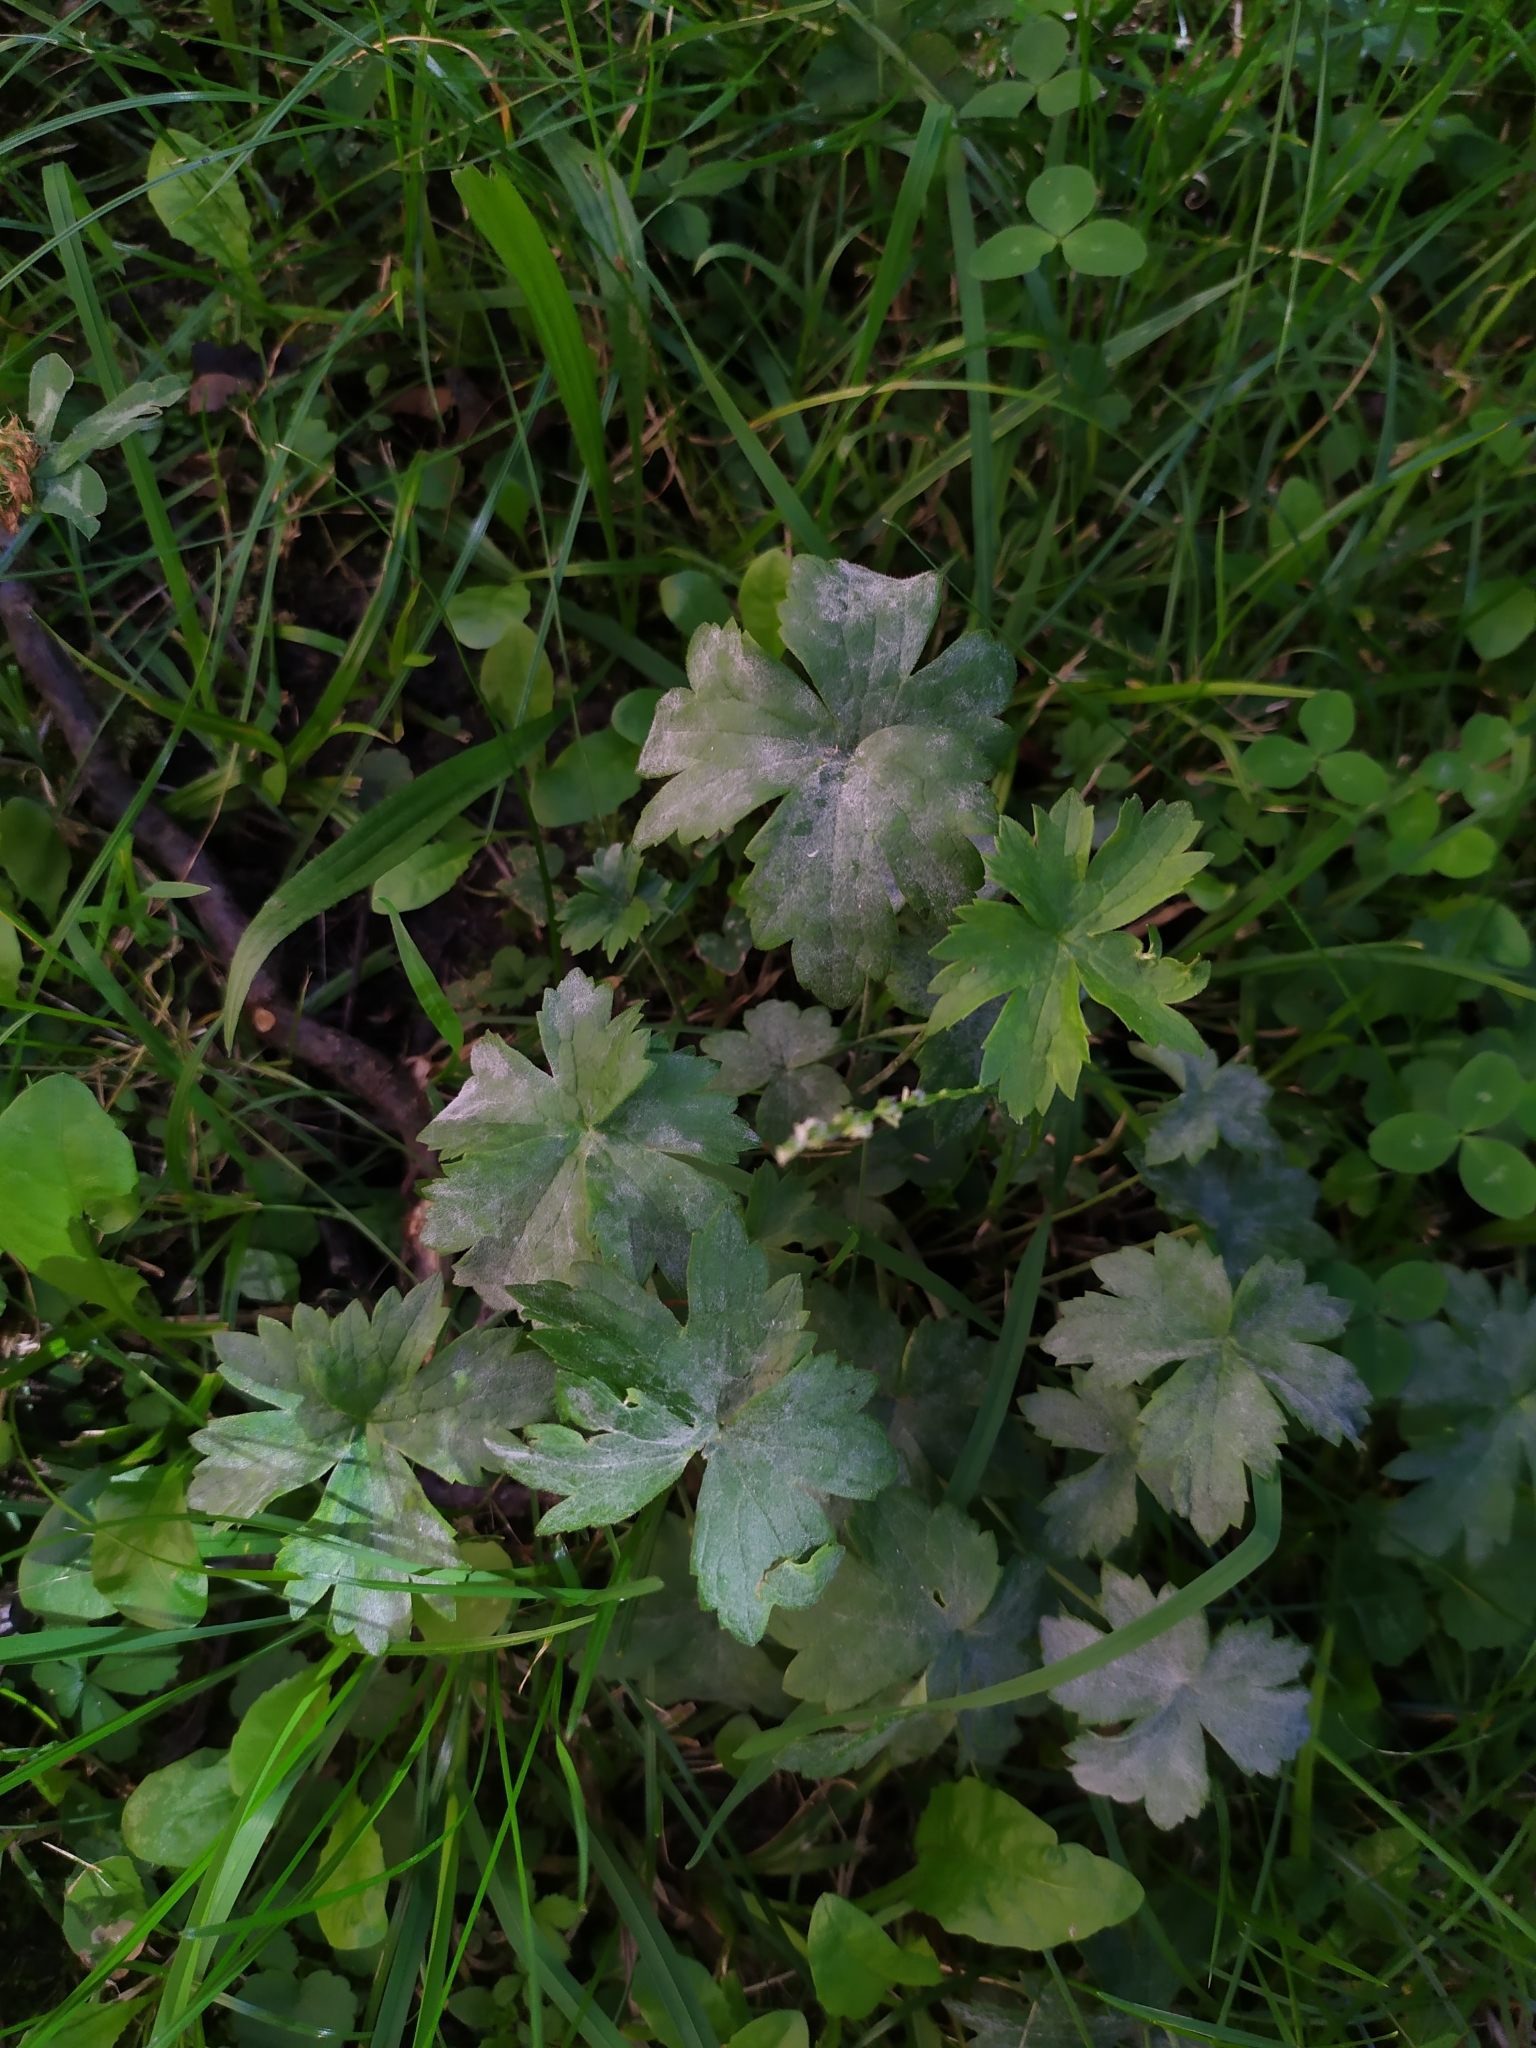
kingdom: Fungi
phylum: Ascomycota
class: Leotiomycetes
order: Helotiales
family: Erysiphaceae
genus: Erysiphe
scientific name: Erysiphe aquilegiae
